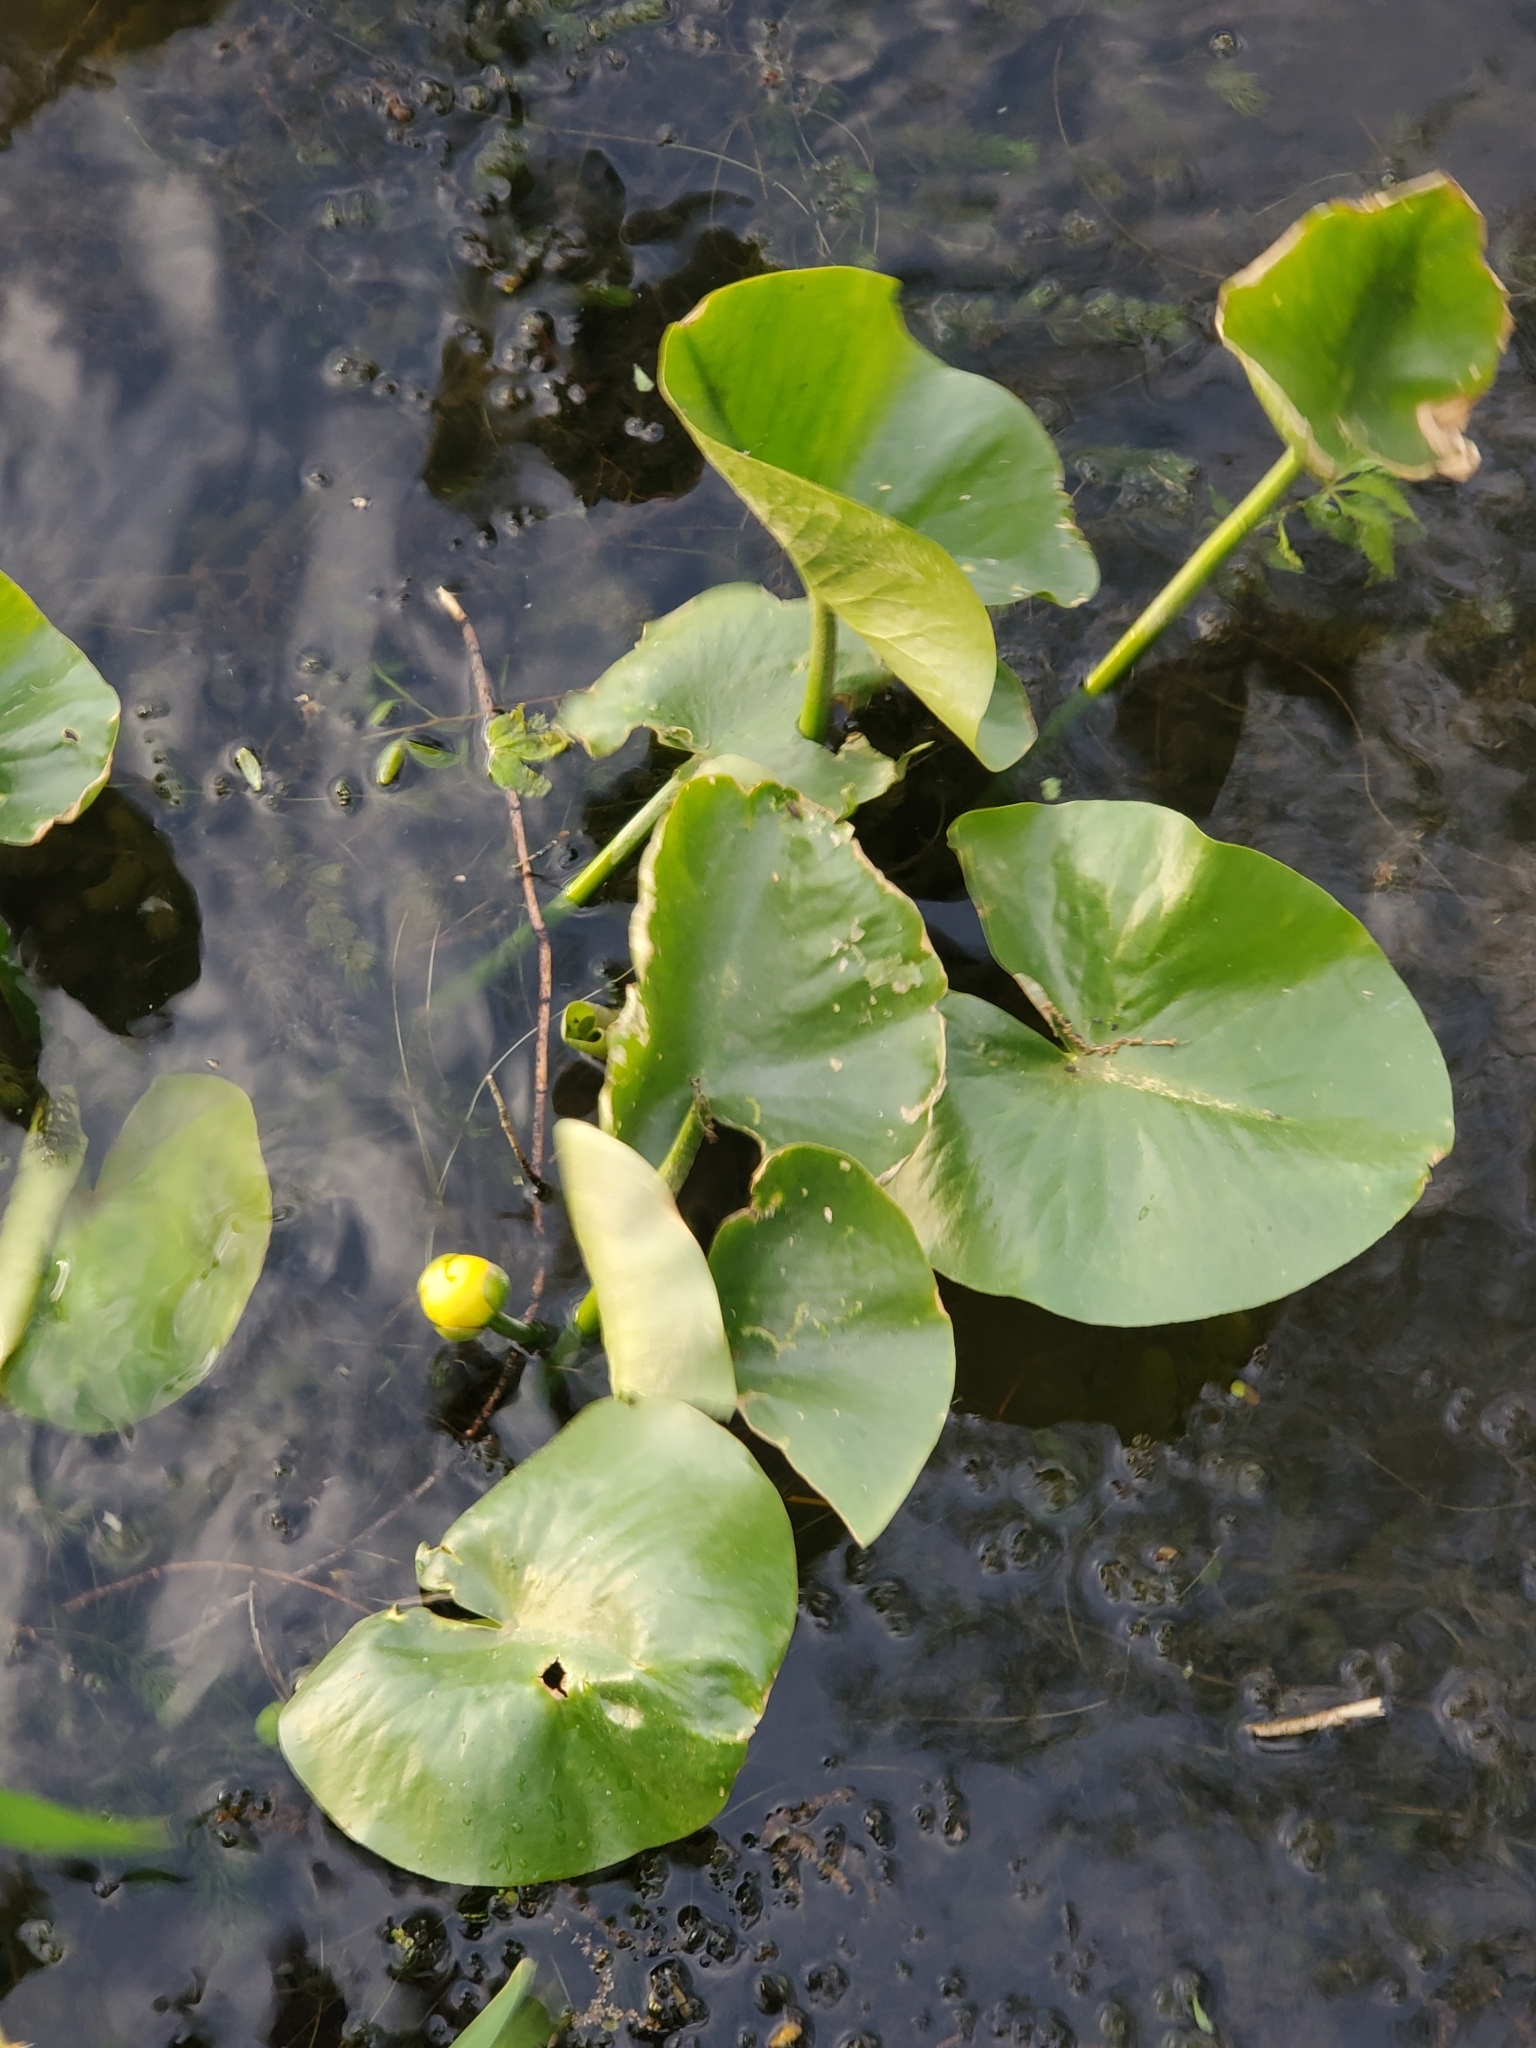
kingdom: Plantae
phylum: Tracheophyta
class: Magnoliopsida
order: Nymphaeales
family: Nymphaeaceae
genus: Nuphar
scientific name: Nuphar advena
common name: Spatter-dock
